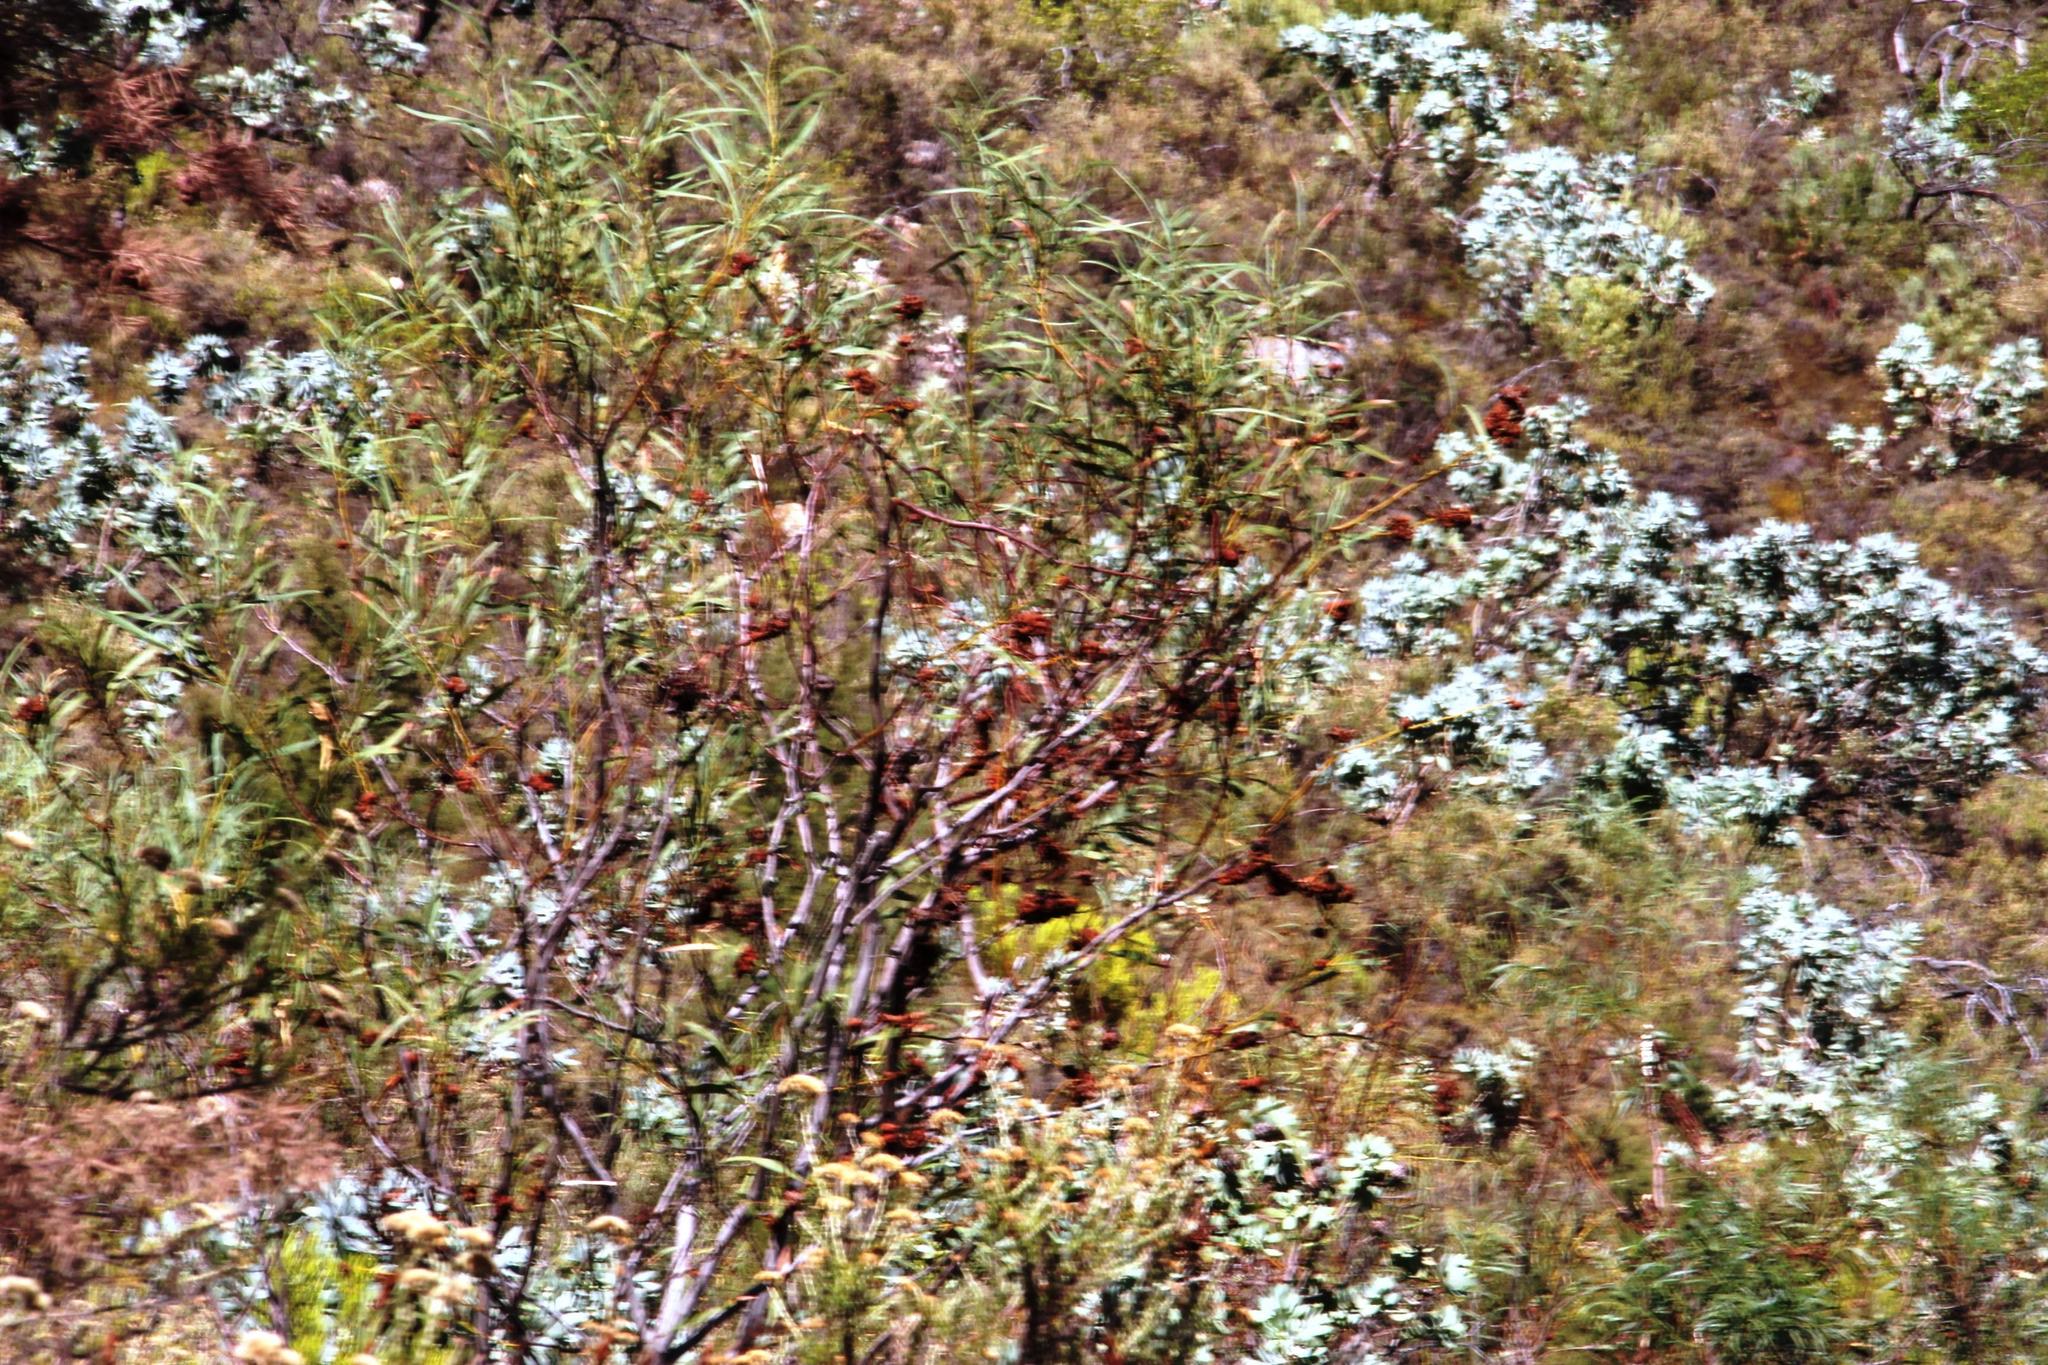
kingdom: Plantae
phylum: Tracheophyta
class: Magnoliopsida
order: Fabales
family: Fabaceae
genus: Acacia
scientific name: Acacia saligna
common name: Orange wattle
